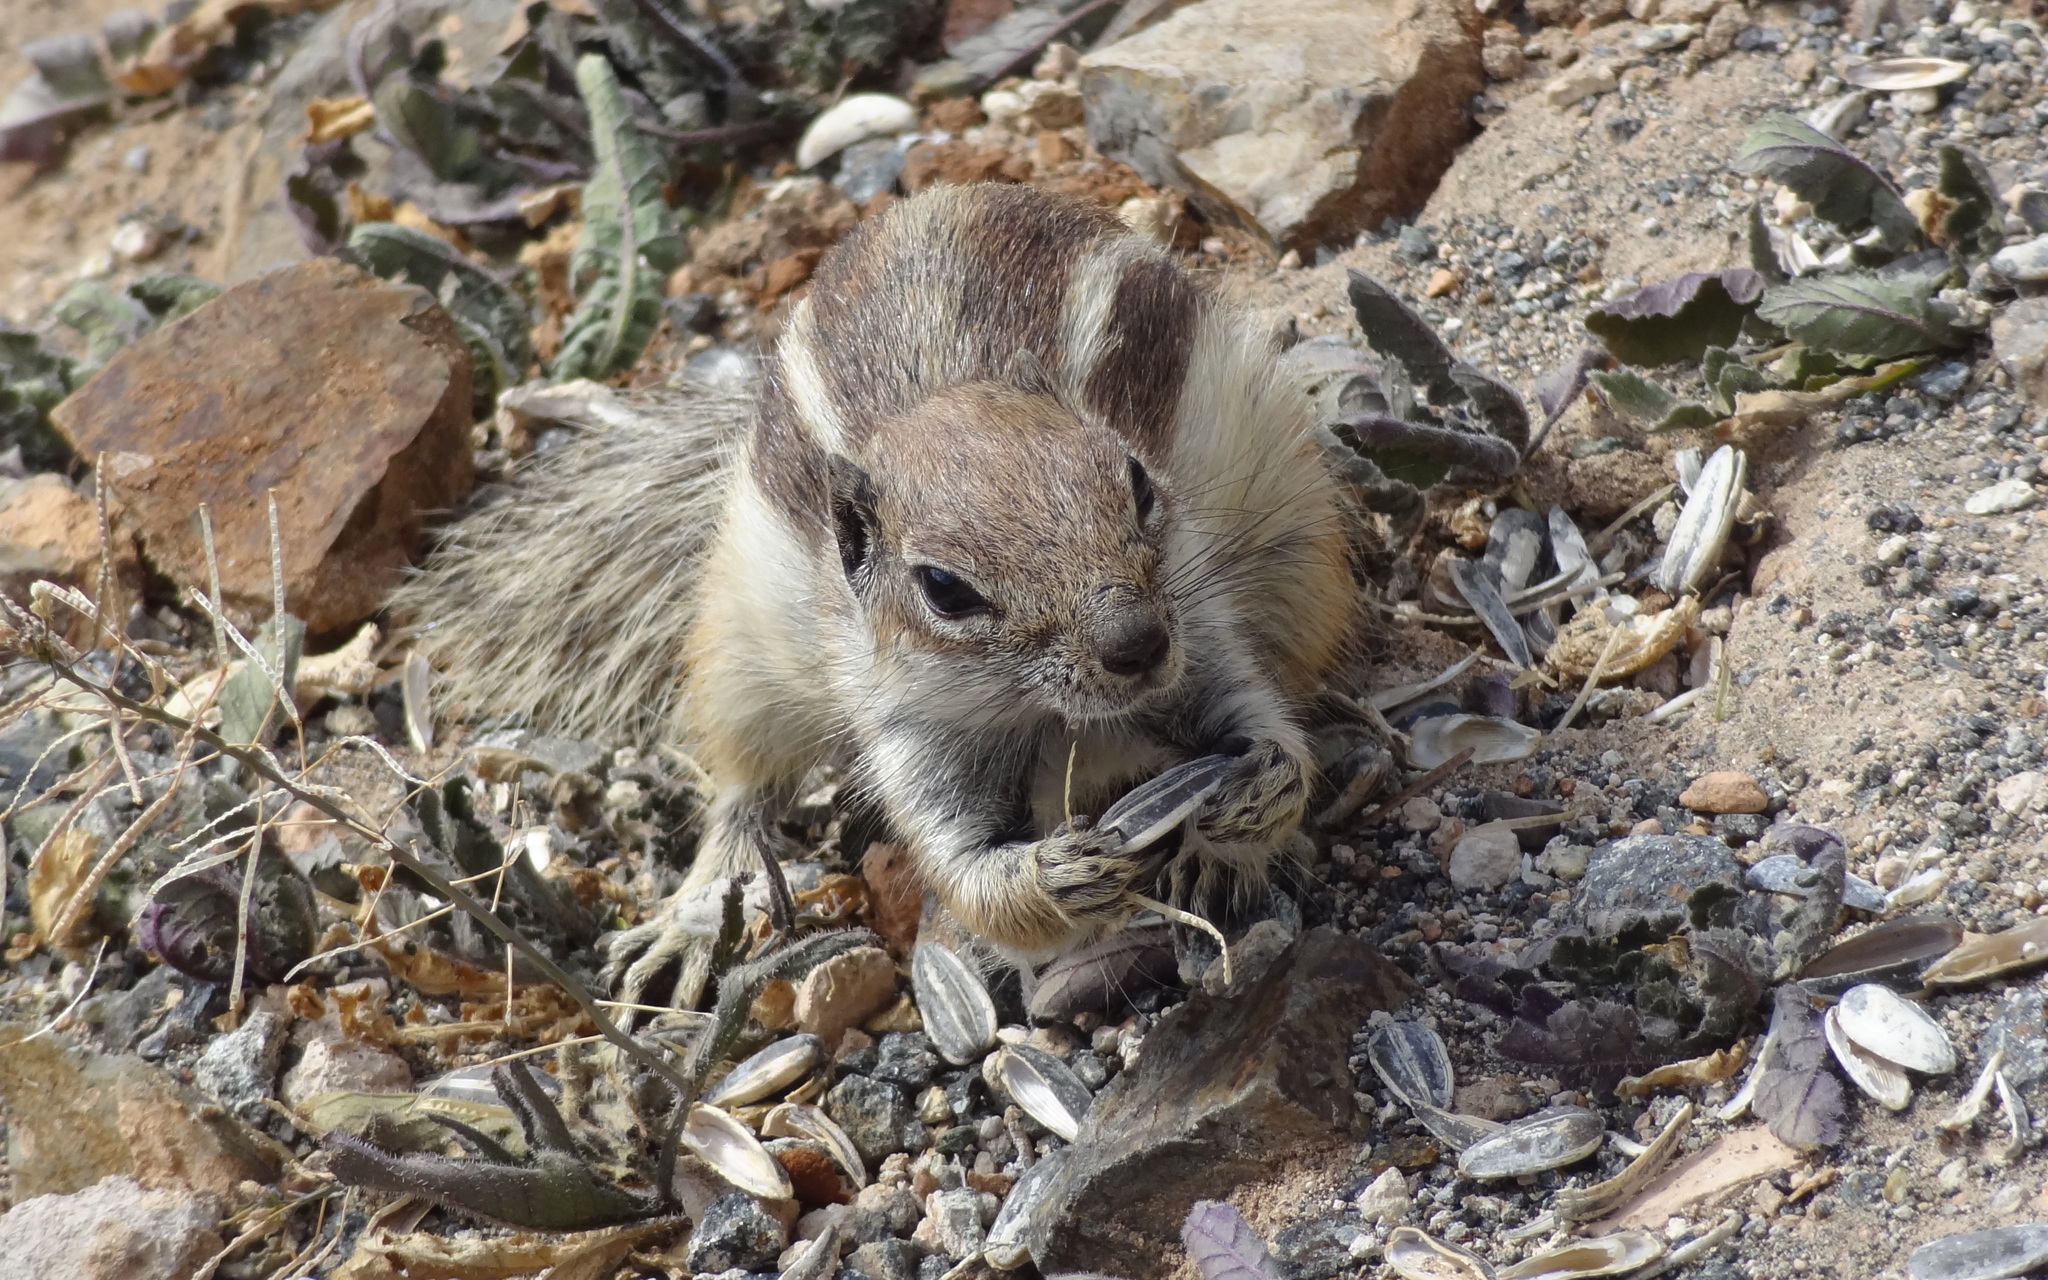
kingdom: Animalia
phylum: Chordata
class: Mammalia
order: Rodentia
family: Sciuridae
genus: Atlantoxerus
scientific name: Atlantoxerus getulus
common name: Barbary ground squirrel
